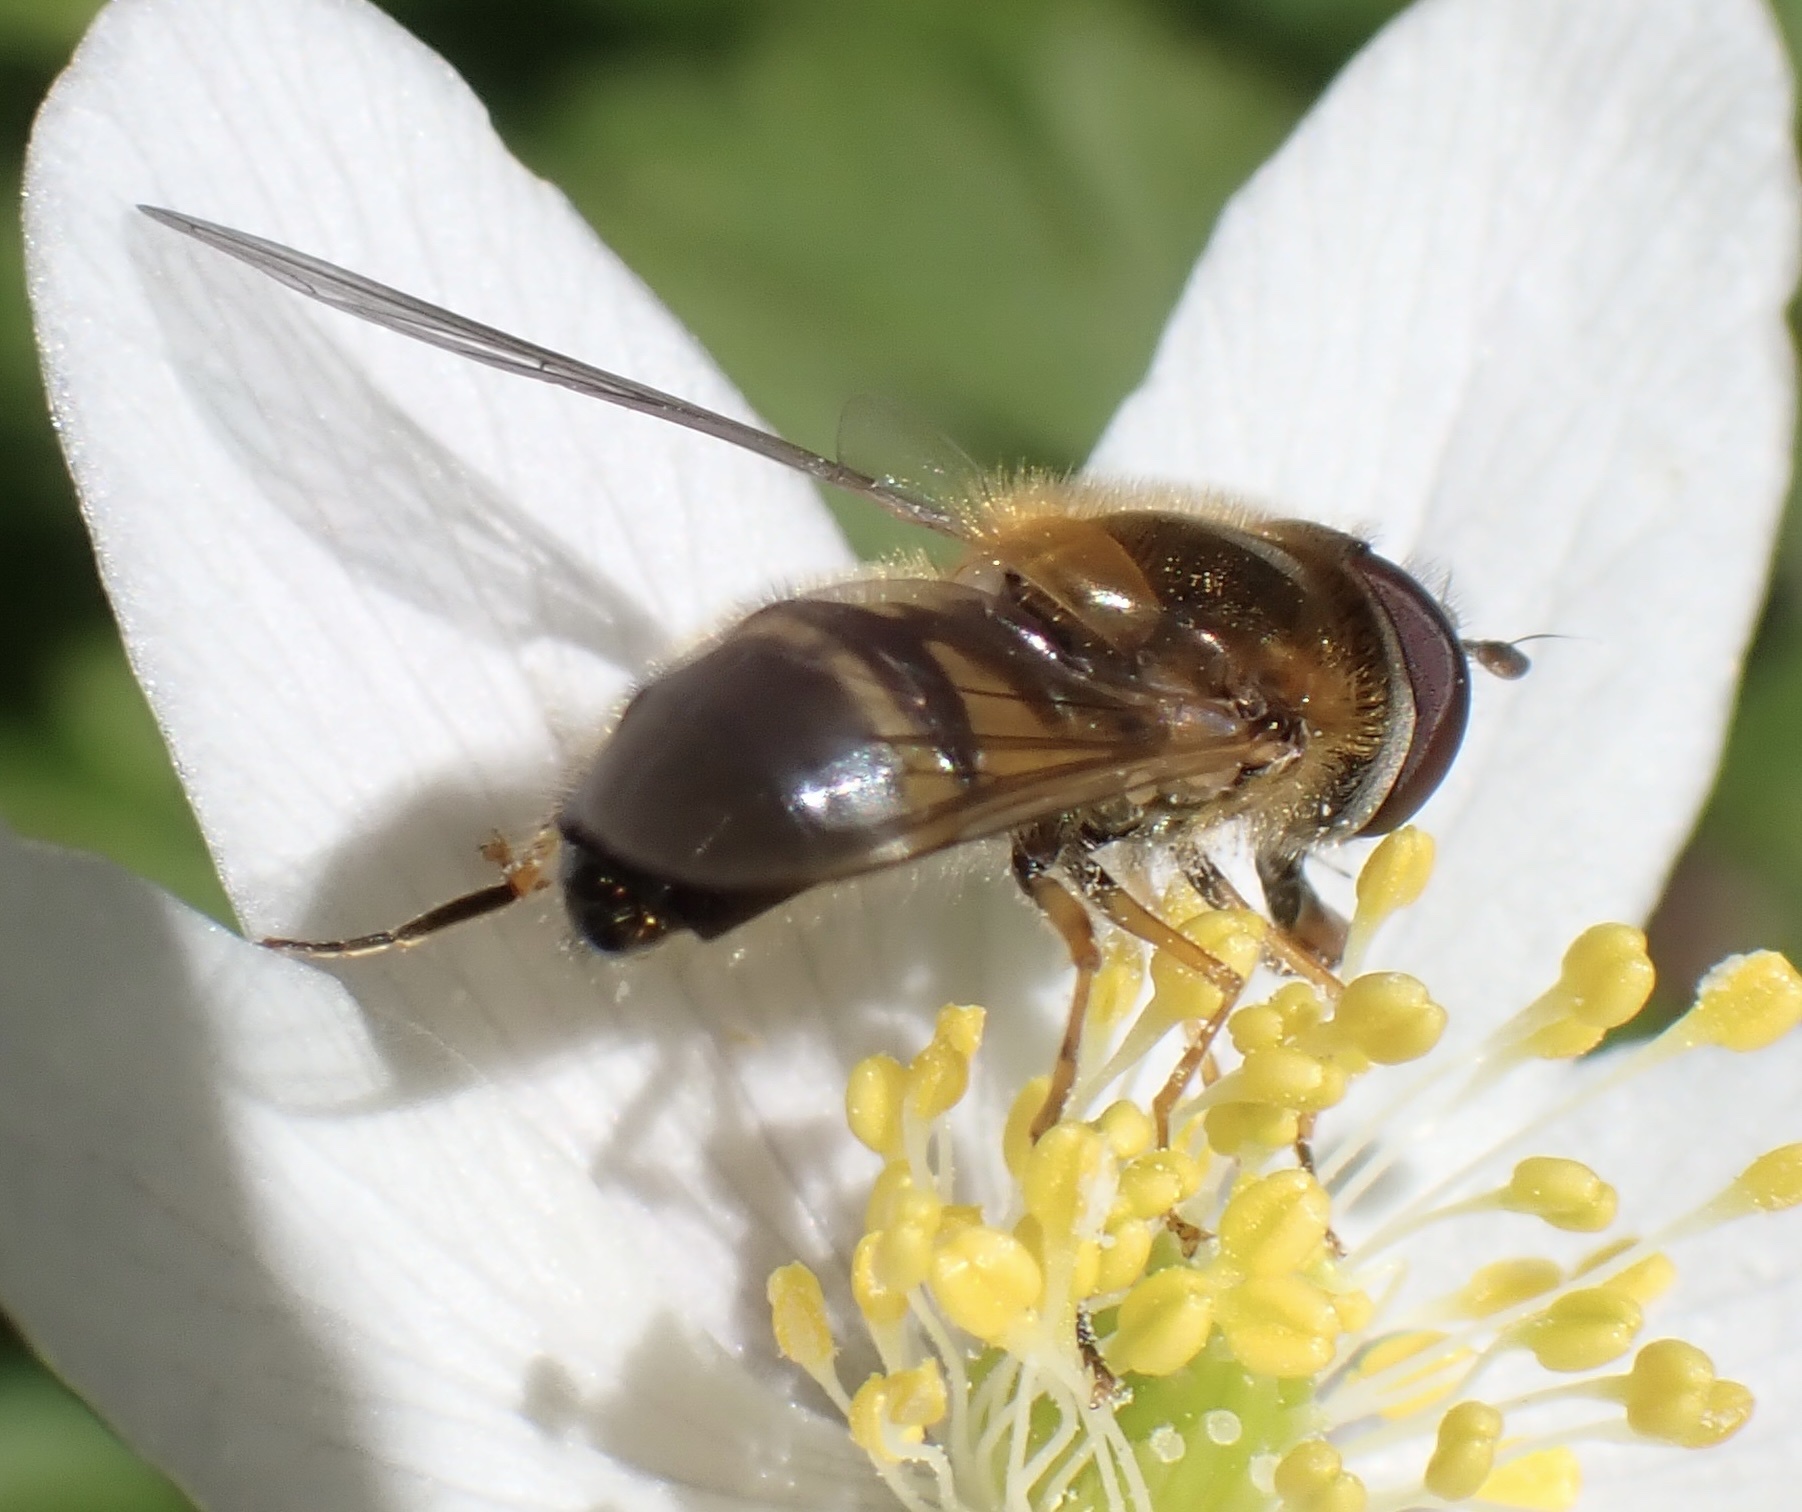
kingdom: Animalia
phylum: Arthropoda
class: Insecta
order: Diptera
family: Syrphidae
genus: Epistrophe
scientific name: Epistrophe eligans
